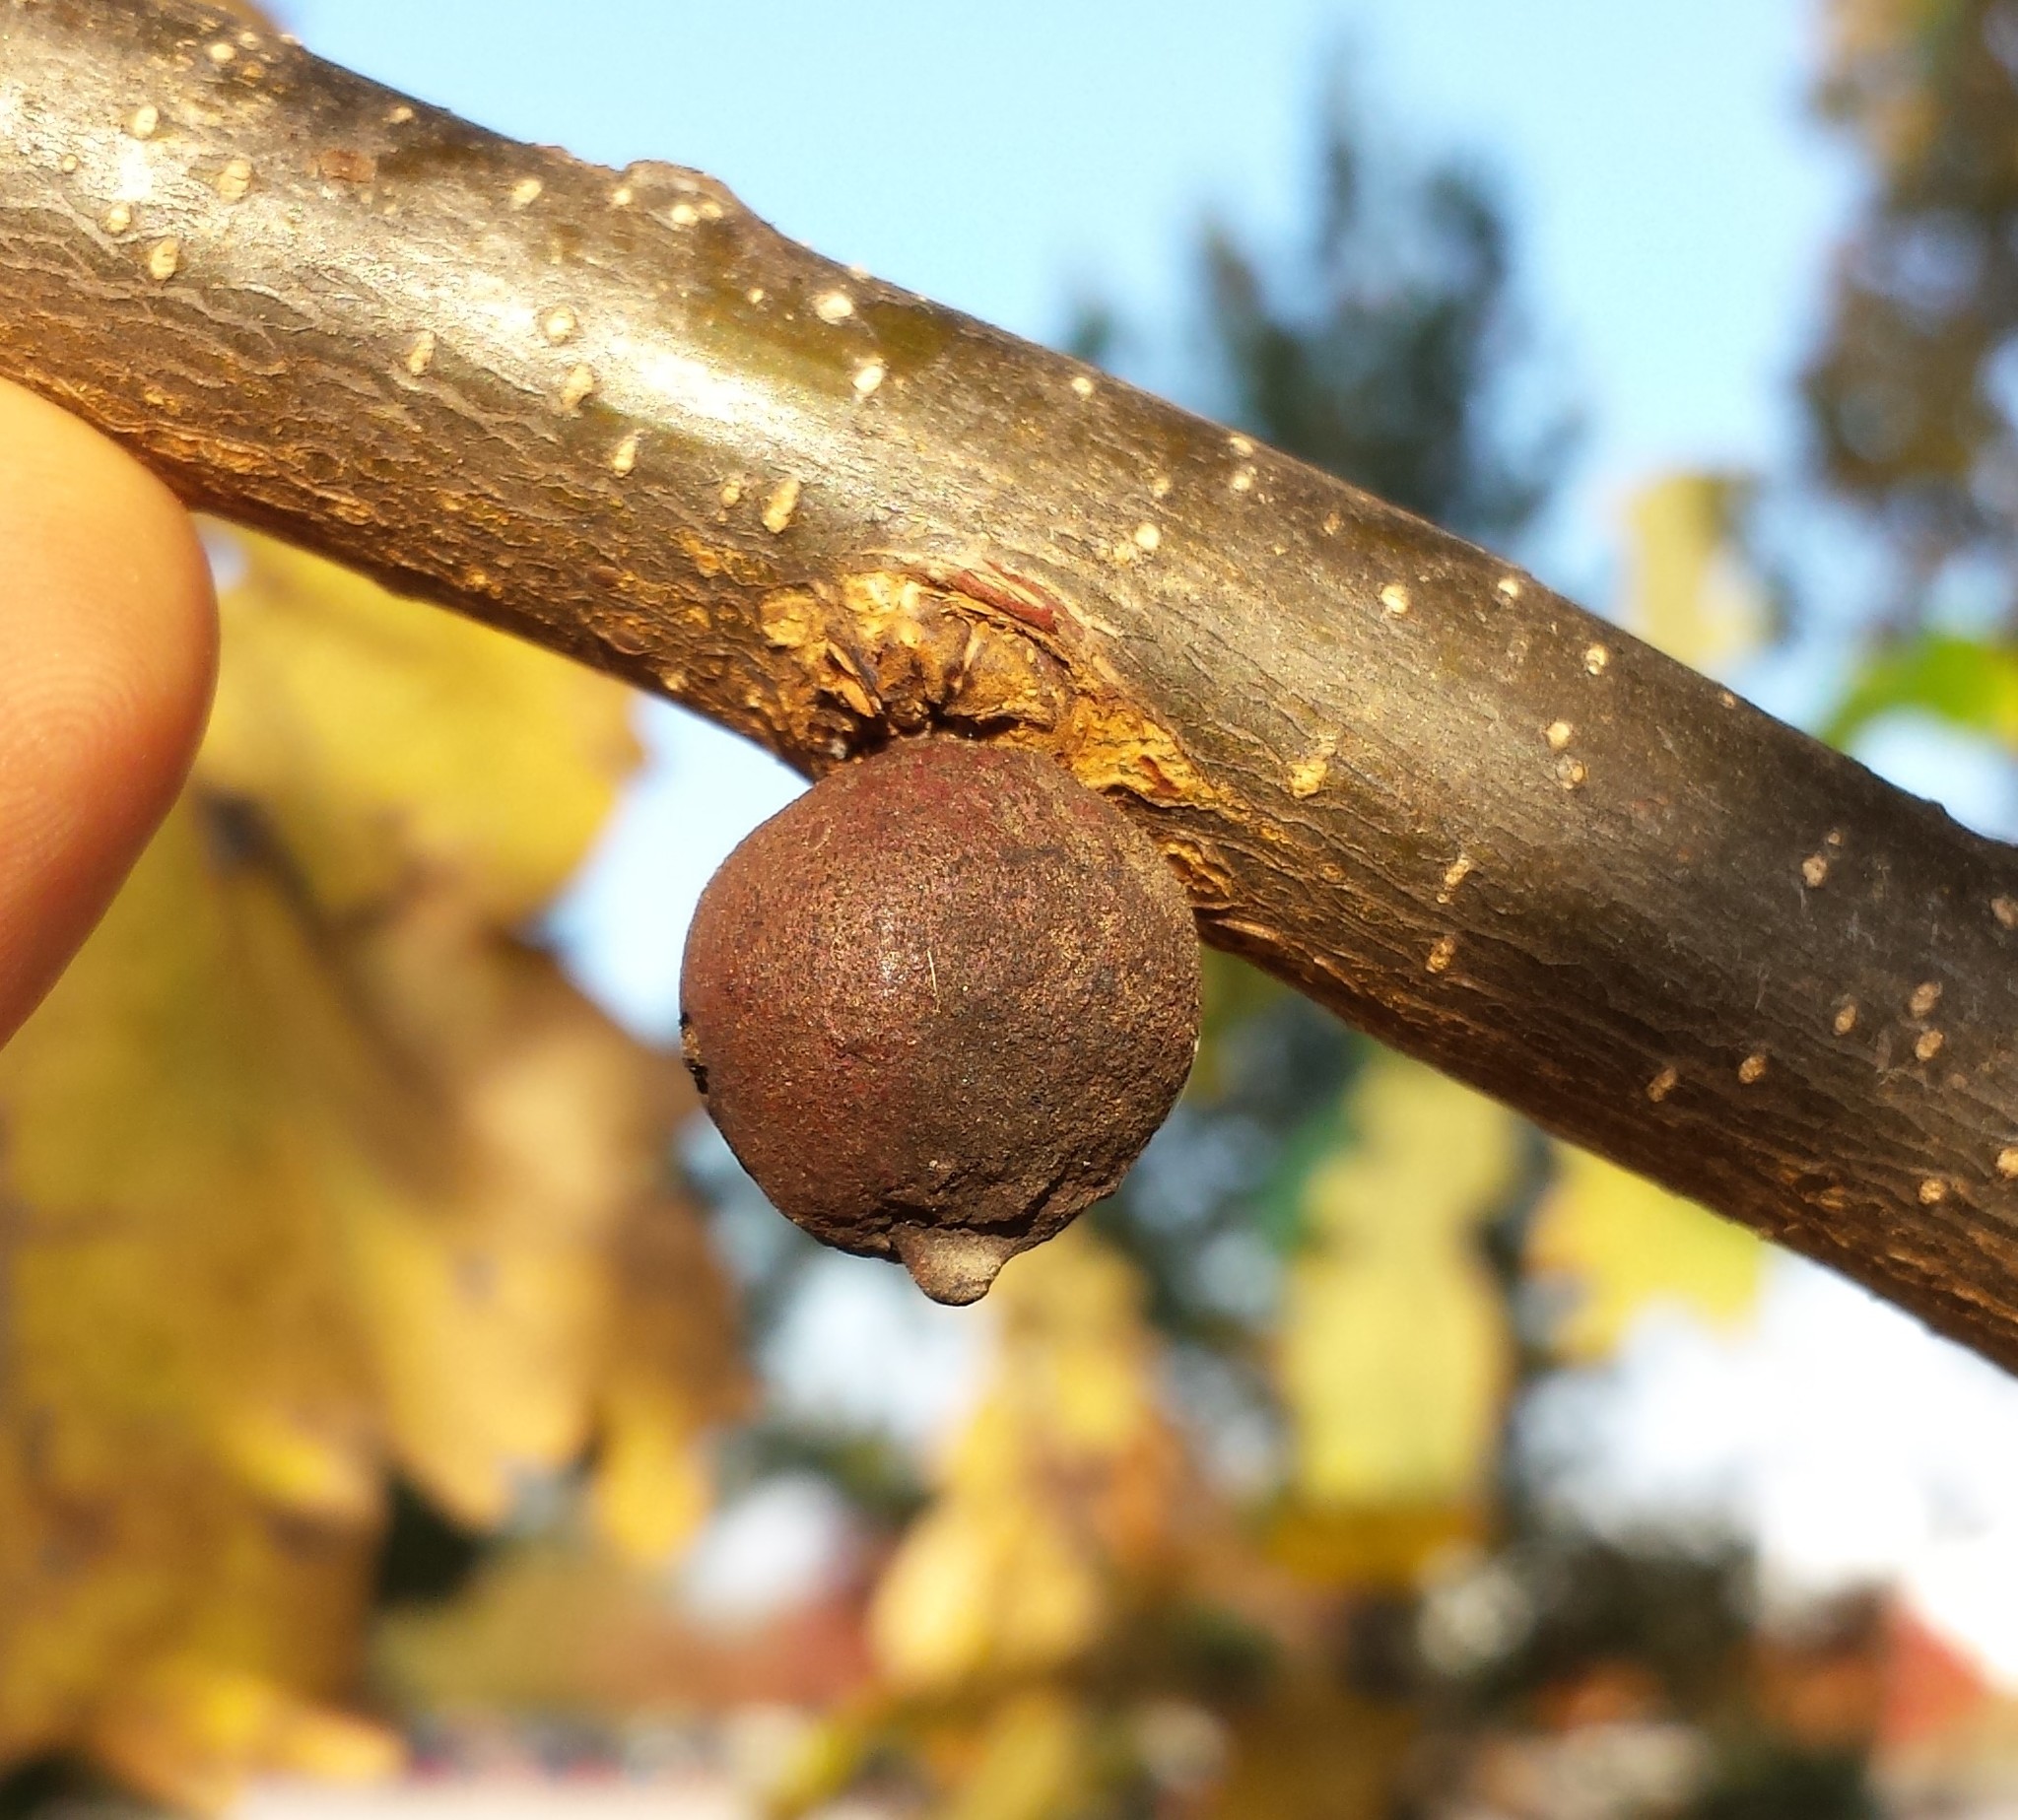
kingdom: Animalia
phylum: Arthropoda
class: Insecta
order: Hymenoptera
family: Cynipidae
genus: Disholcaspis
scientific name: Disholcaspis
